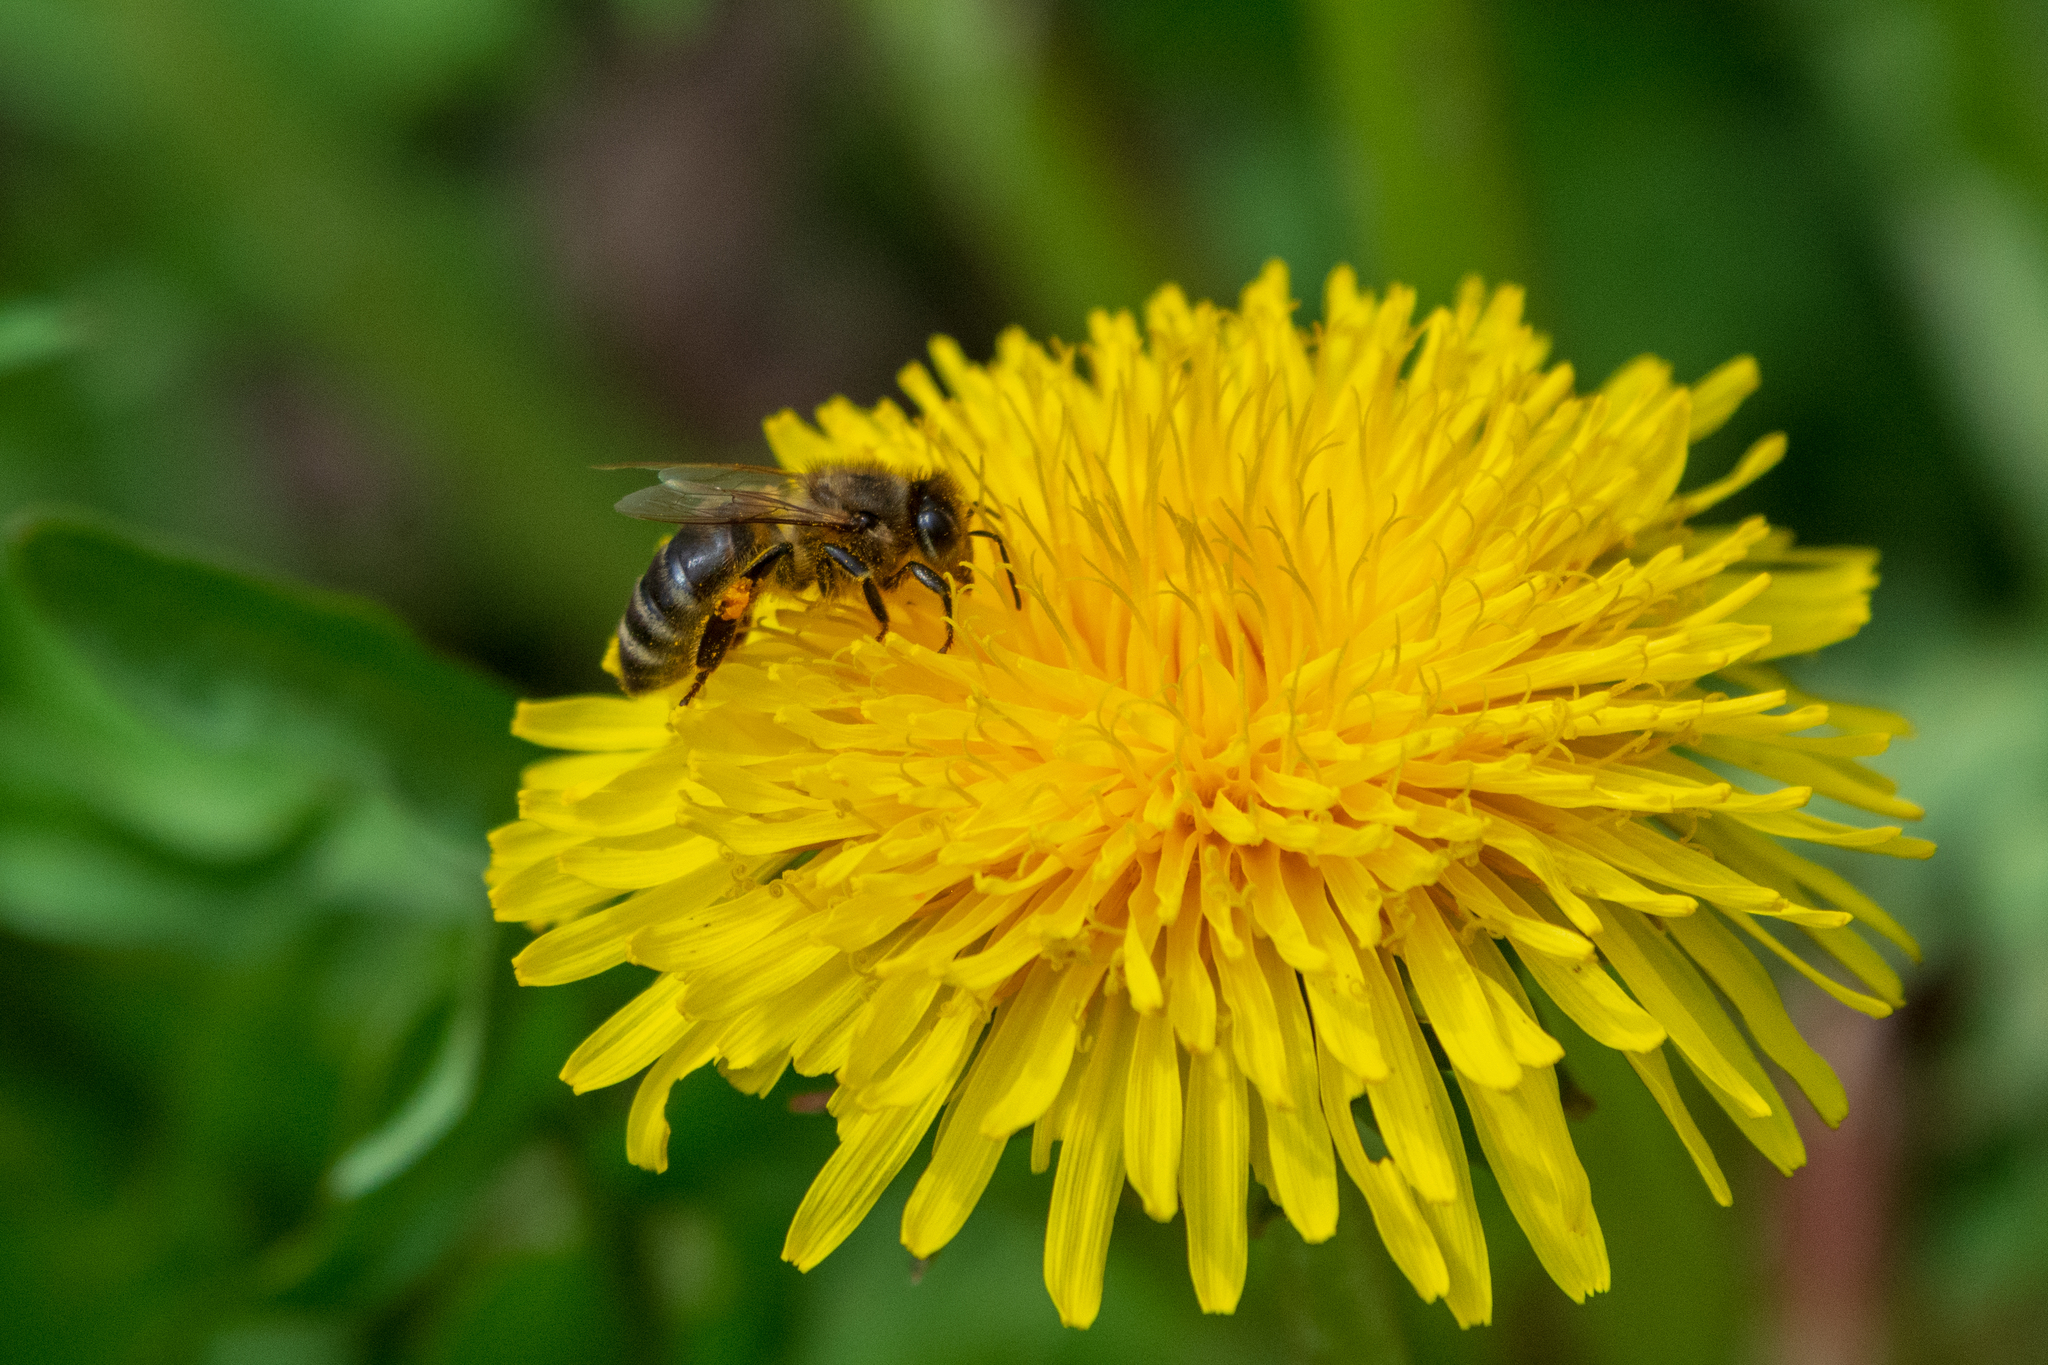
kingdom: Animalia
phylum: Arthropoda
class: Insecta
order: Hymenoptera
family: Apidae
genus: Apis
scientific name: Apis mellifera
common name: Honey bee
